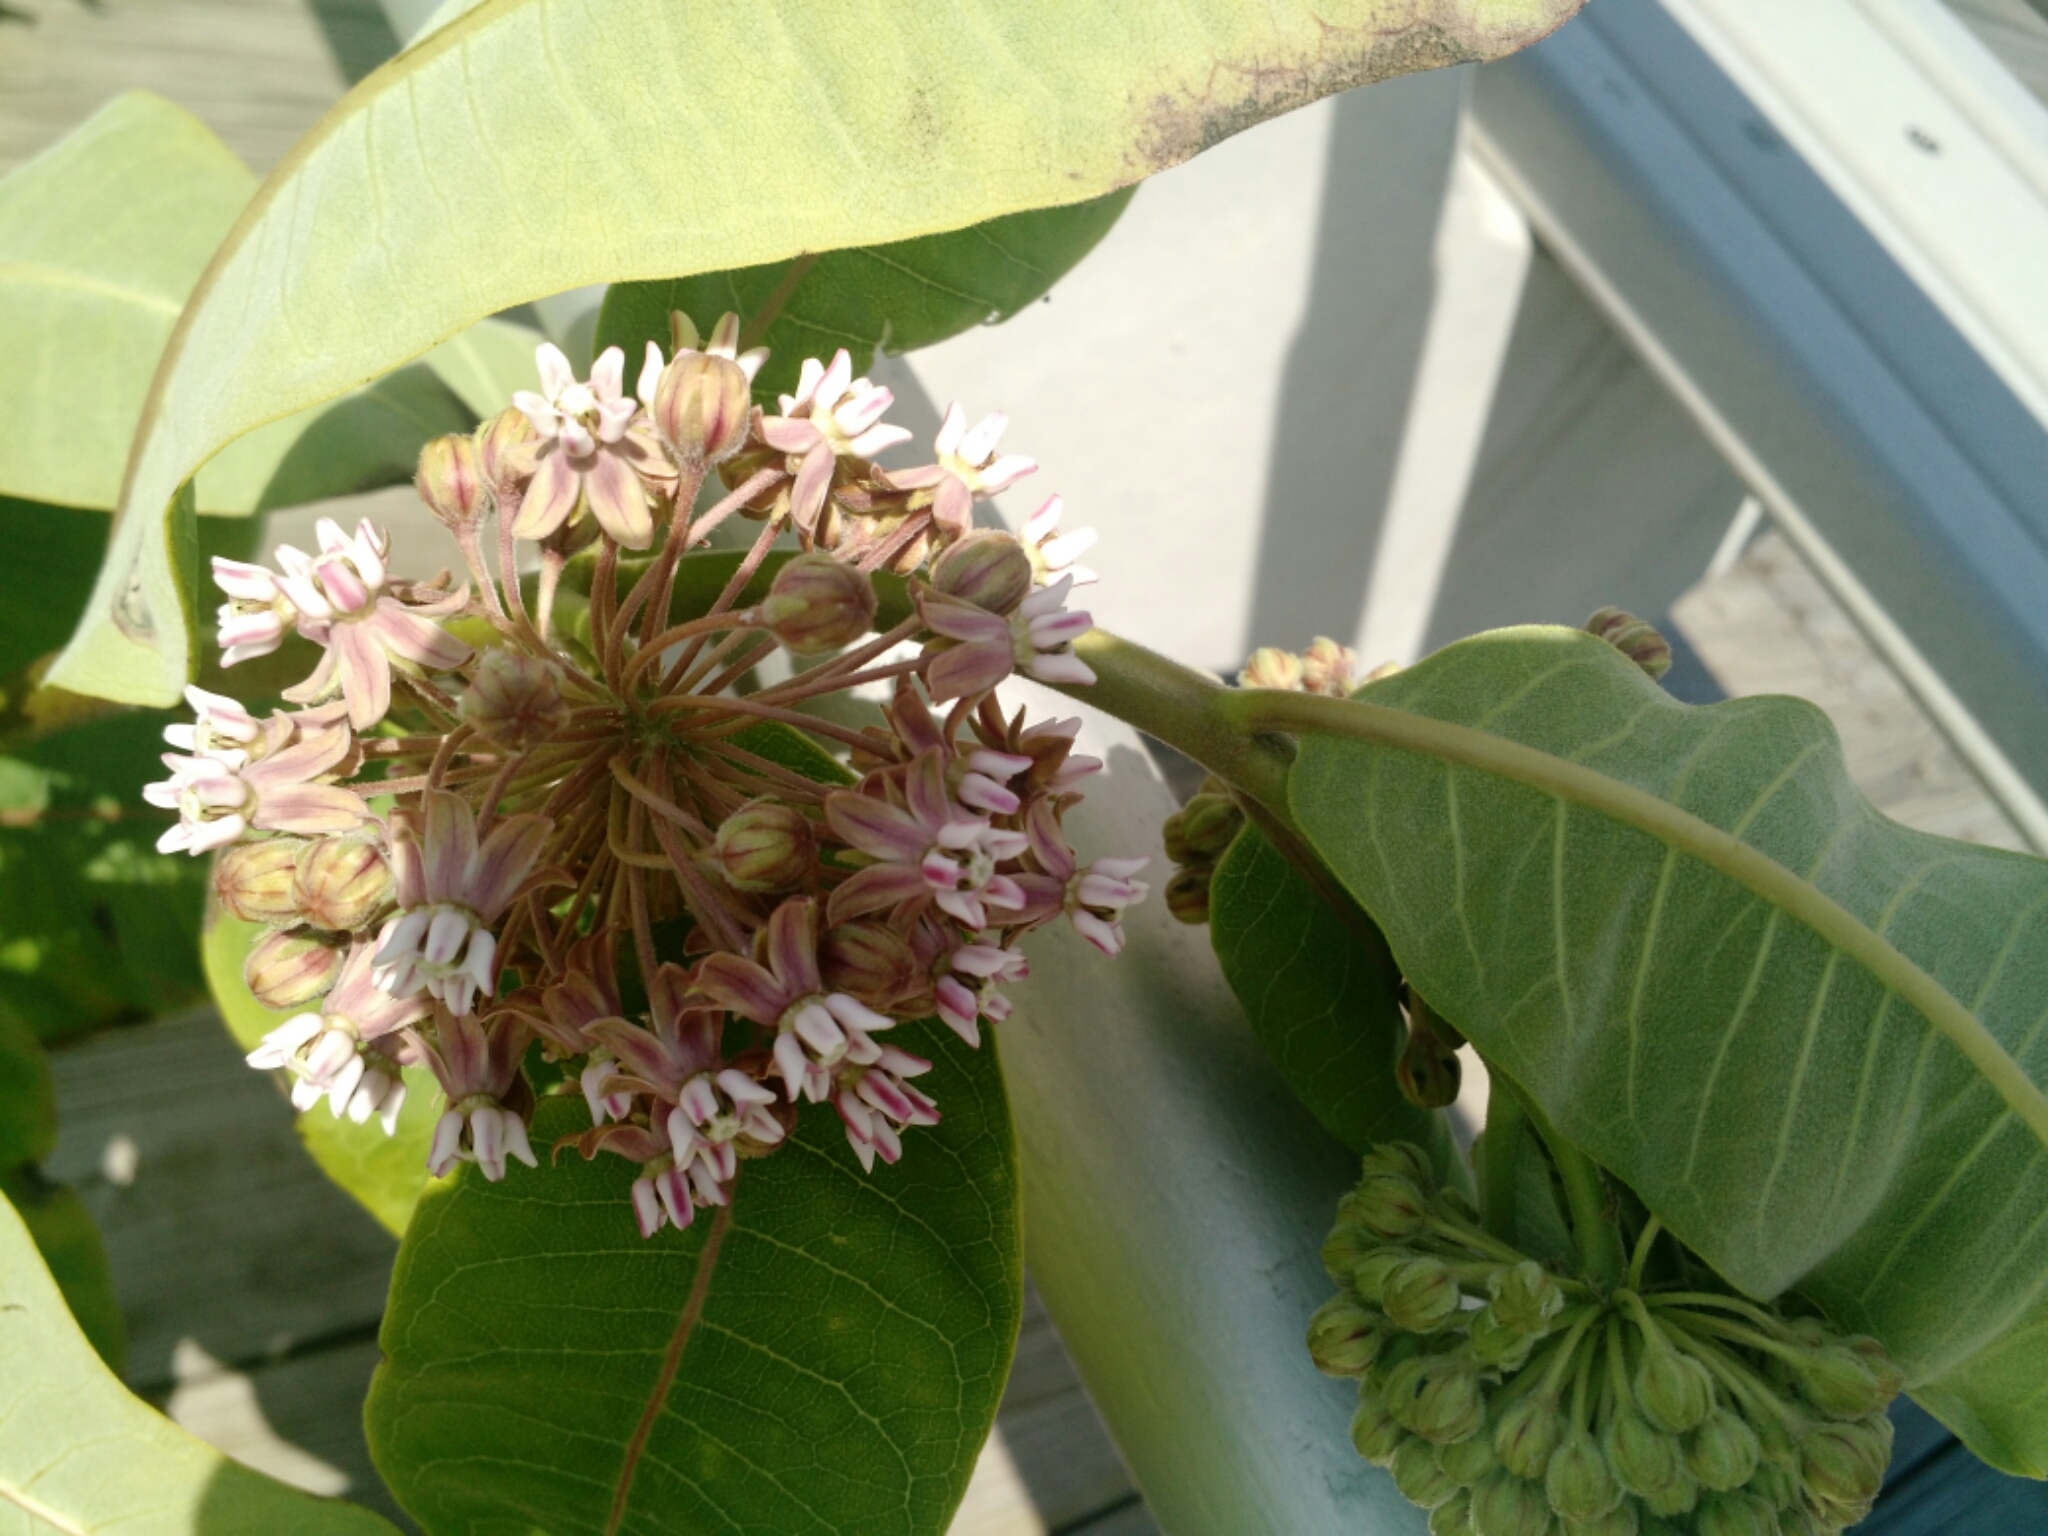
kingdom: Plantae
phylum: Tracheophyta
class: Magnoliopsida
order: Gentianales
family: Apocynaceae
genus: Asclepias
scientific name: Asclepias syriaca
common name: Common milkweed
